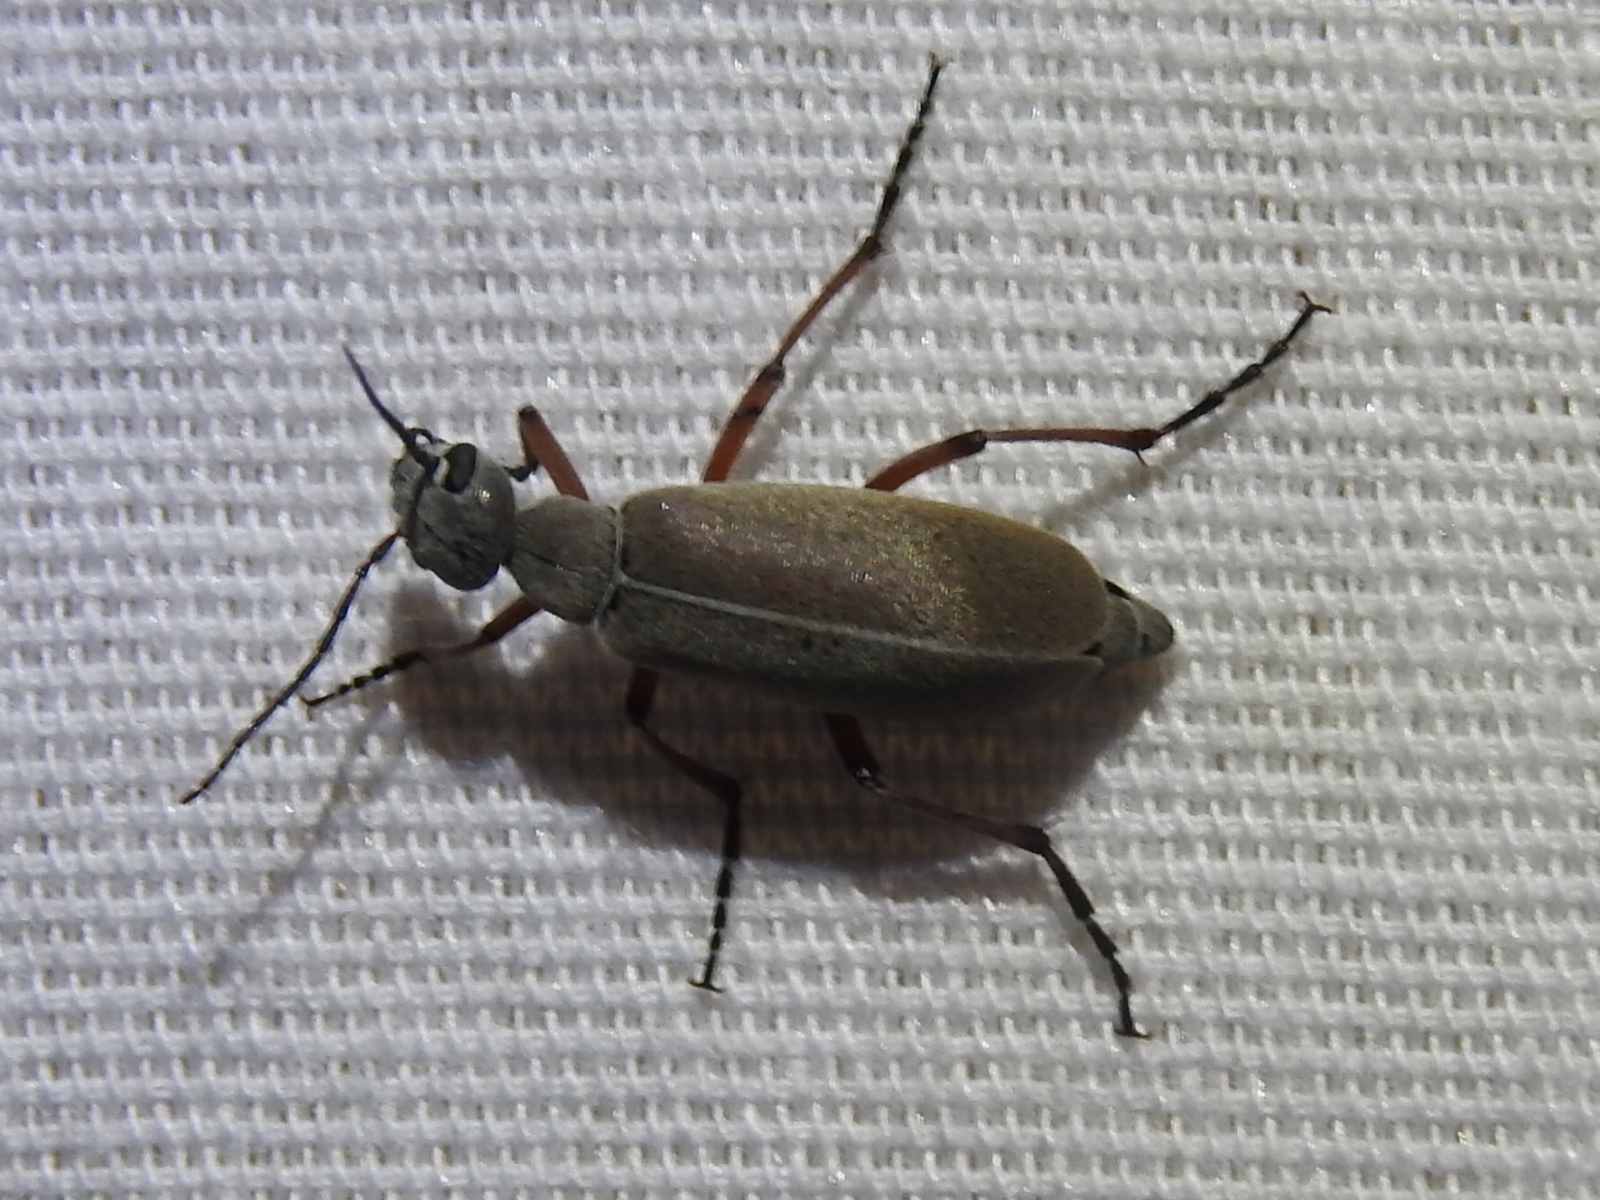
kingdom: Animalia
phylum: Arthropoda
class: Insecta
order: Coleoptera
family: Meloidae
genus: Epicauta
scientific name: Epicauta nigritarsis
